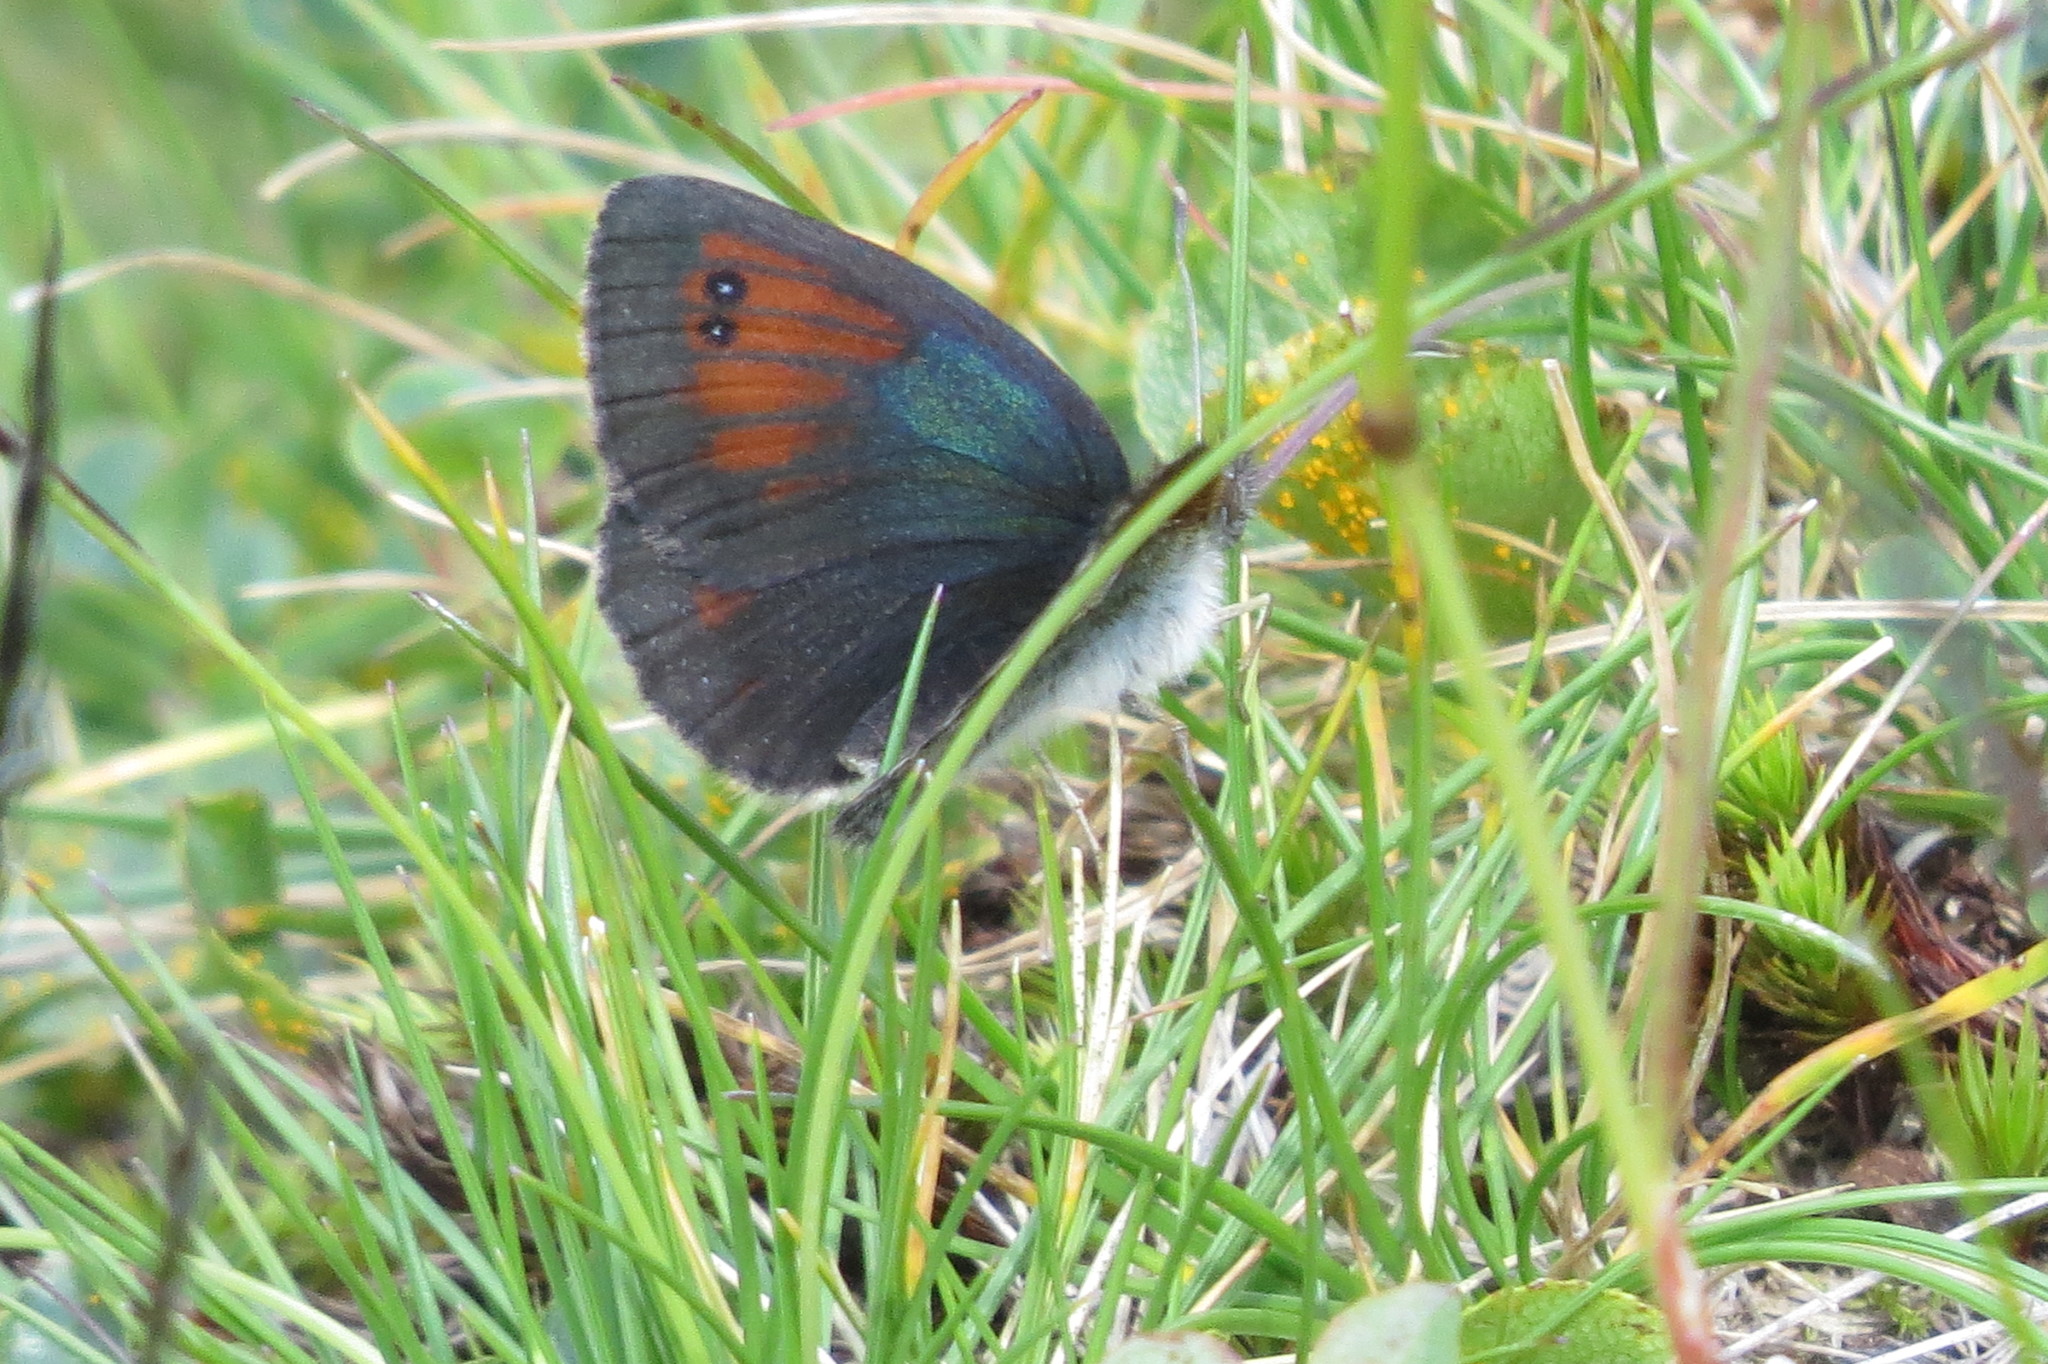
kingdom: Animalia
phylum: Arthropoda
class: Insecta
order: Lepidoptera
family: Nymphalidae
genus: Erebia
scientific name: Erebia tyndarus
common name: Swiss brassy ringlet
